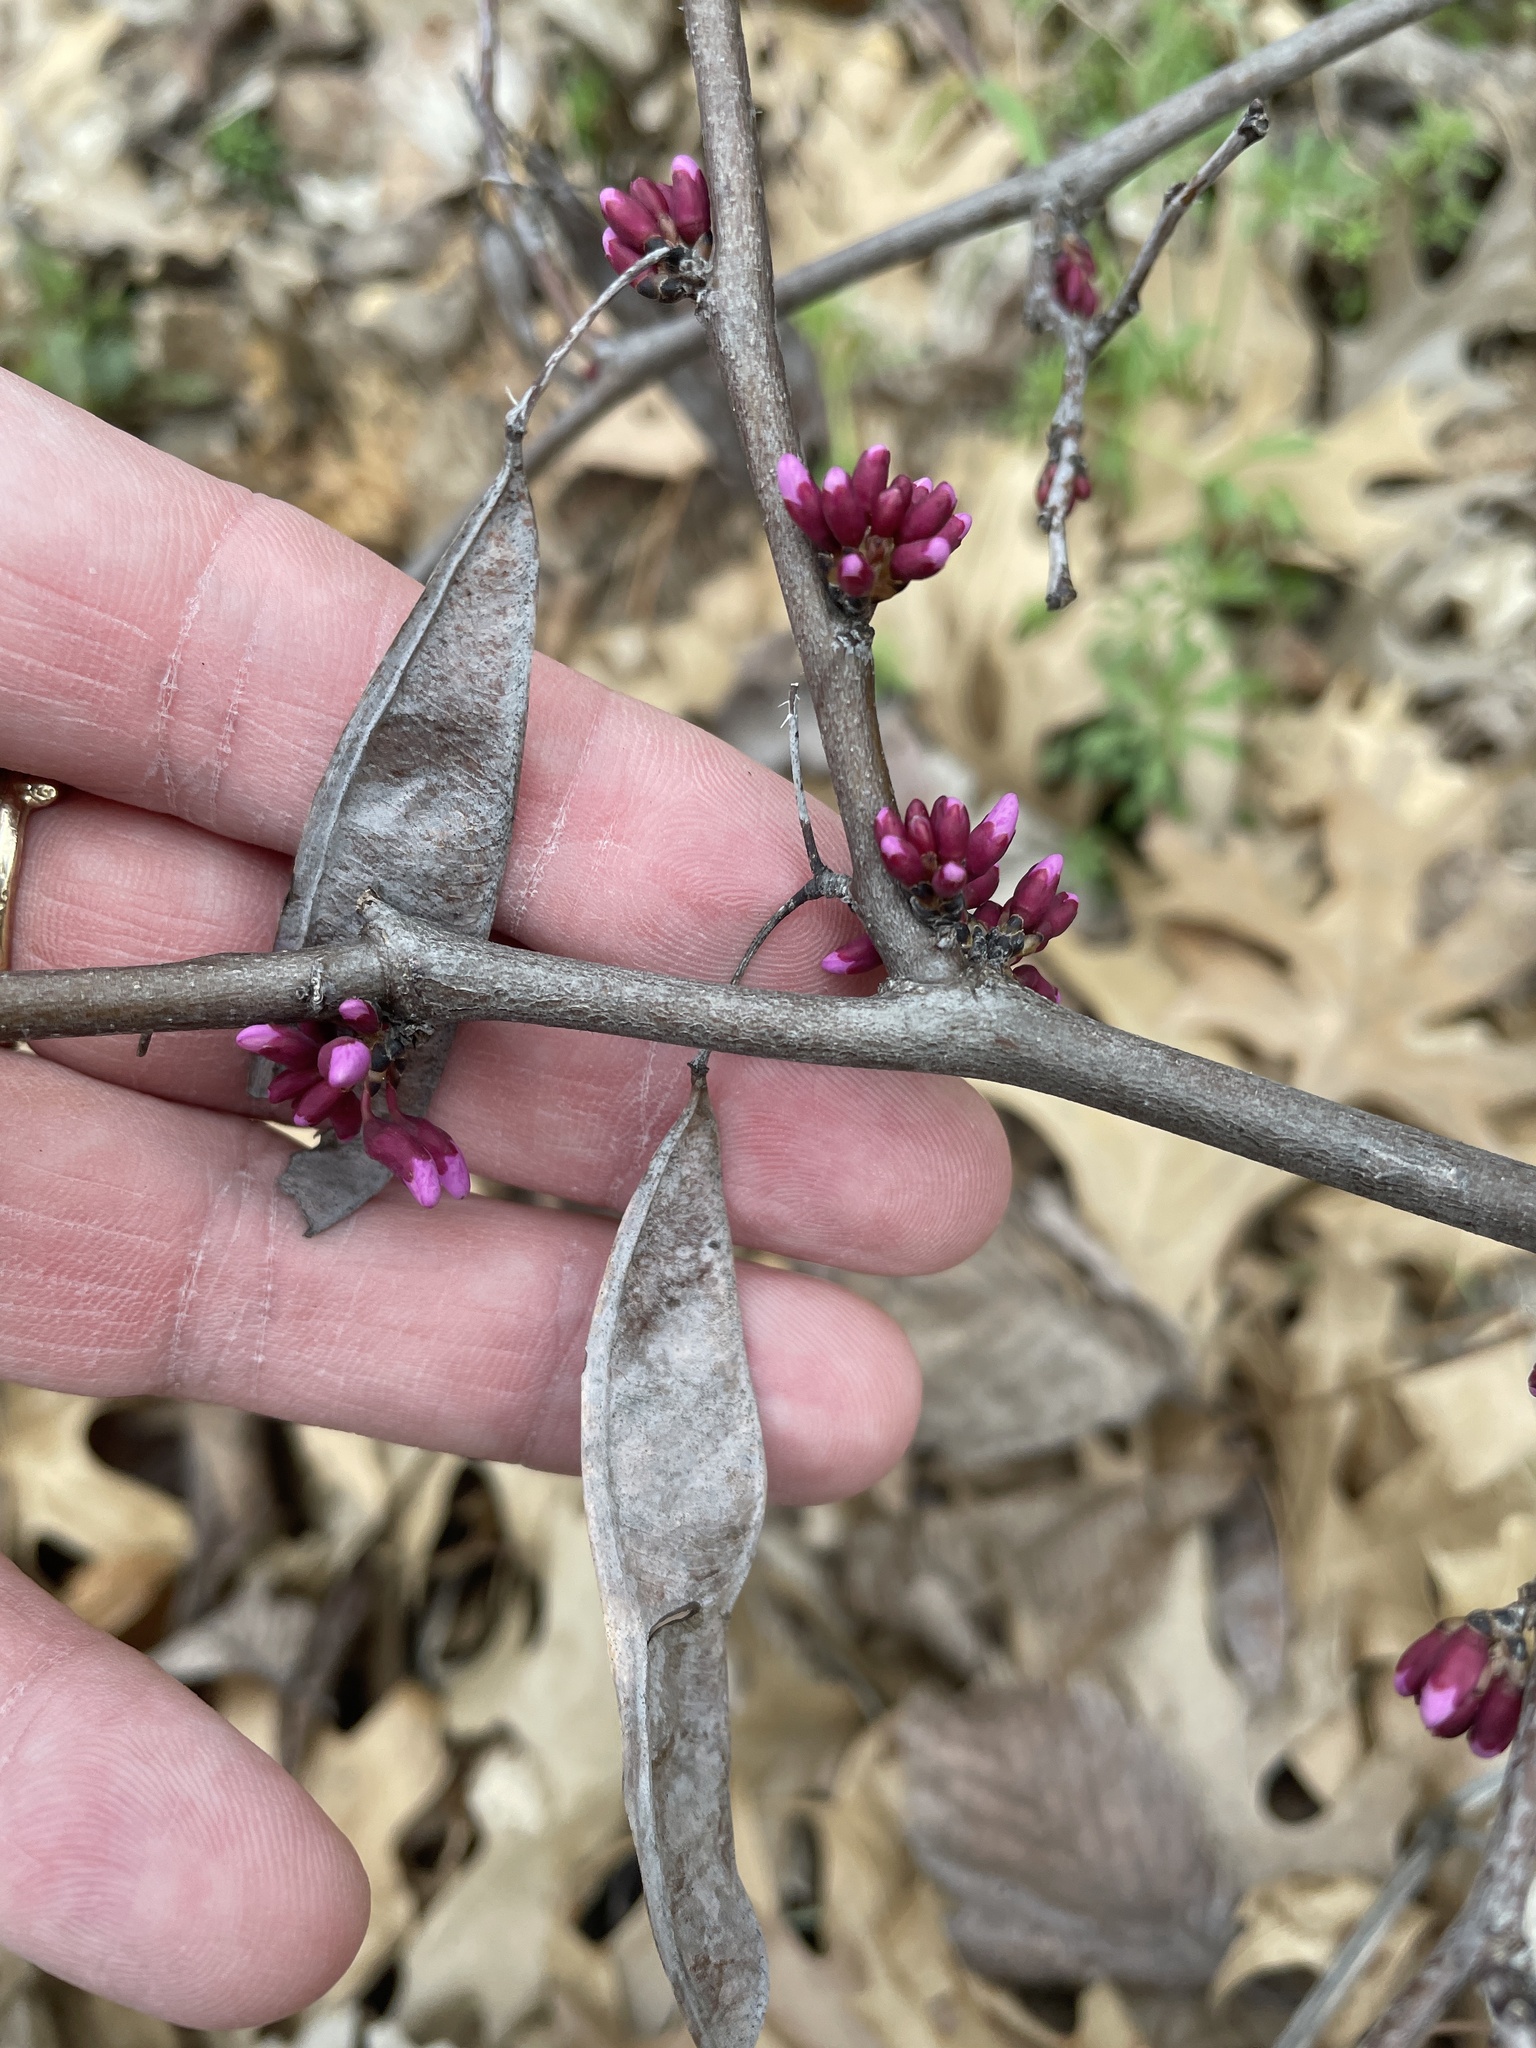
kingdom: Plantae
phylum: Tracheophyta
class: Magnoliopsida
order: Fabales
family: Fabaceae
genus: Cercis
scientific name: Cercis canadensis
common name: Eastern redbud
